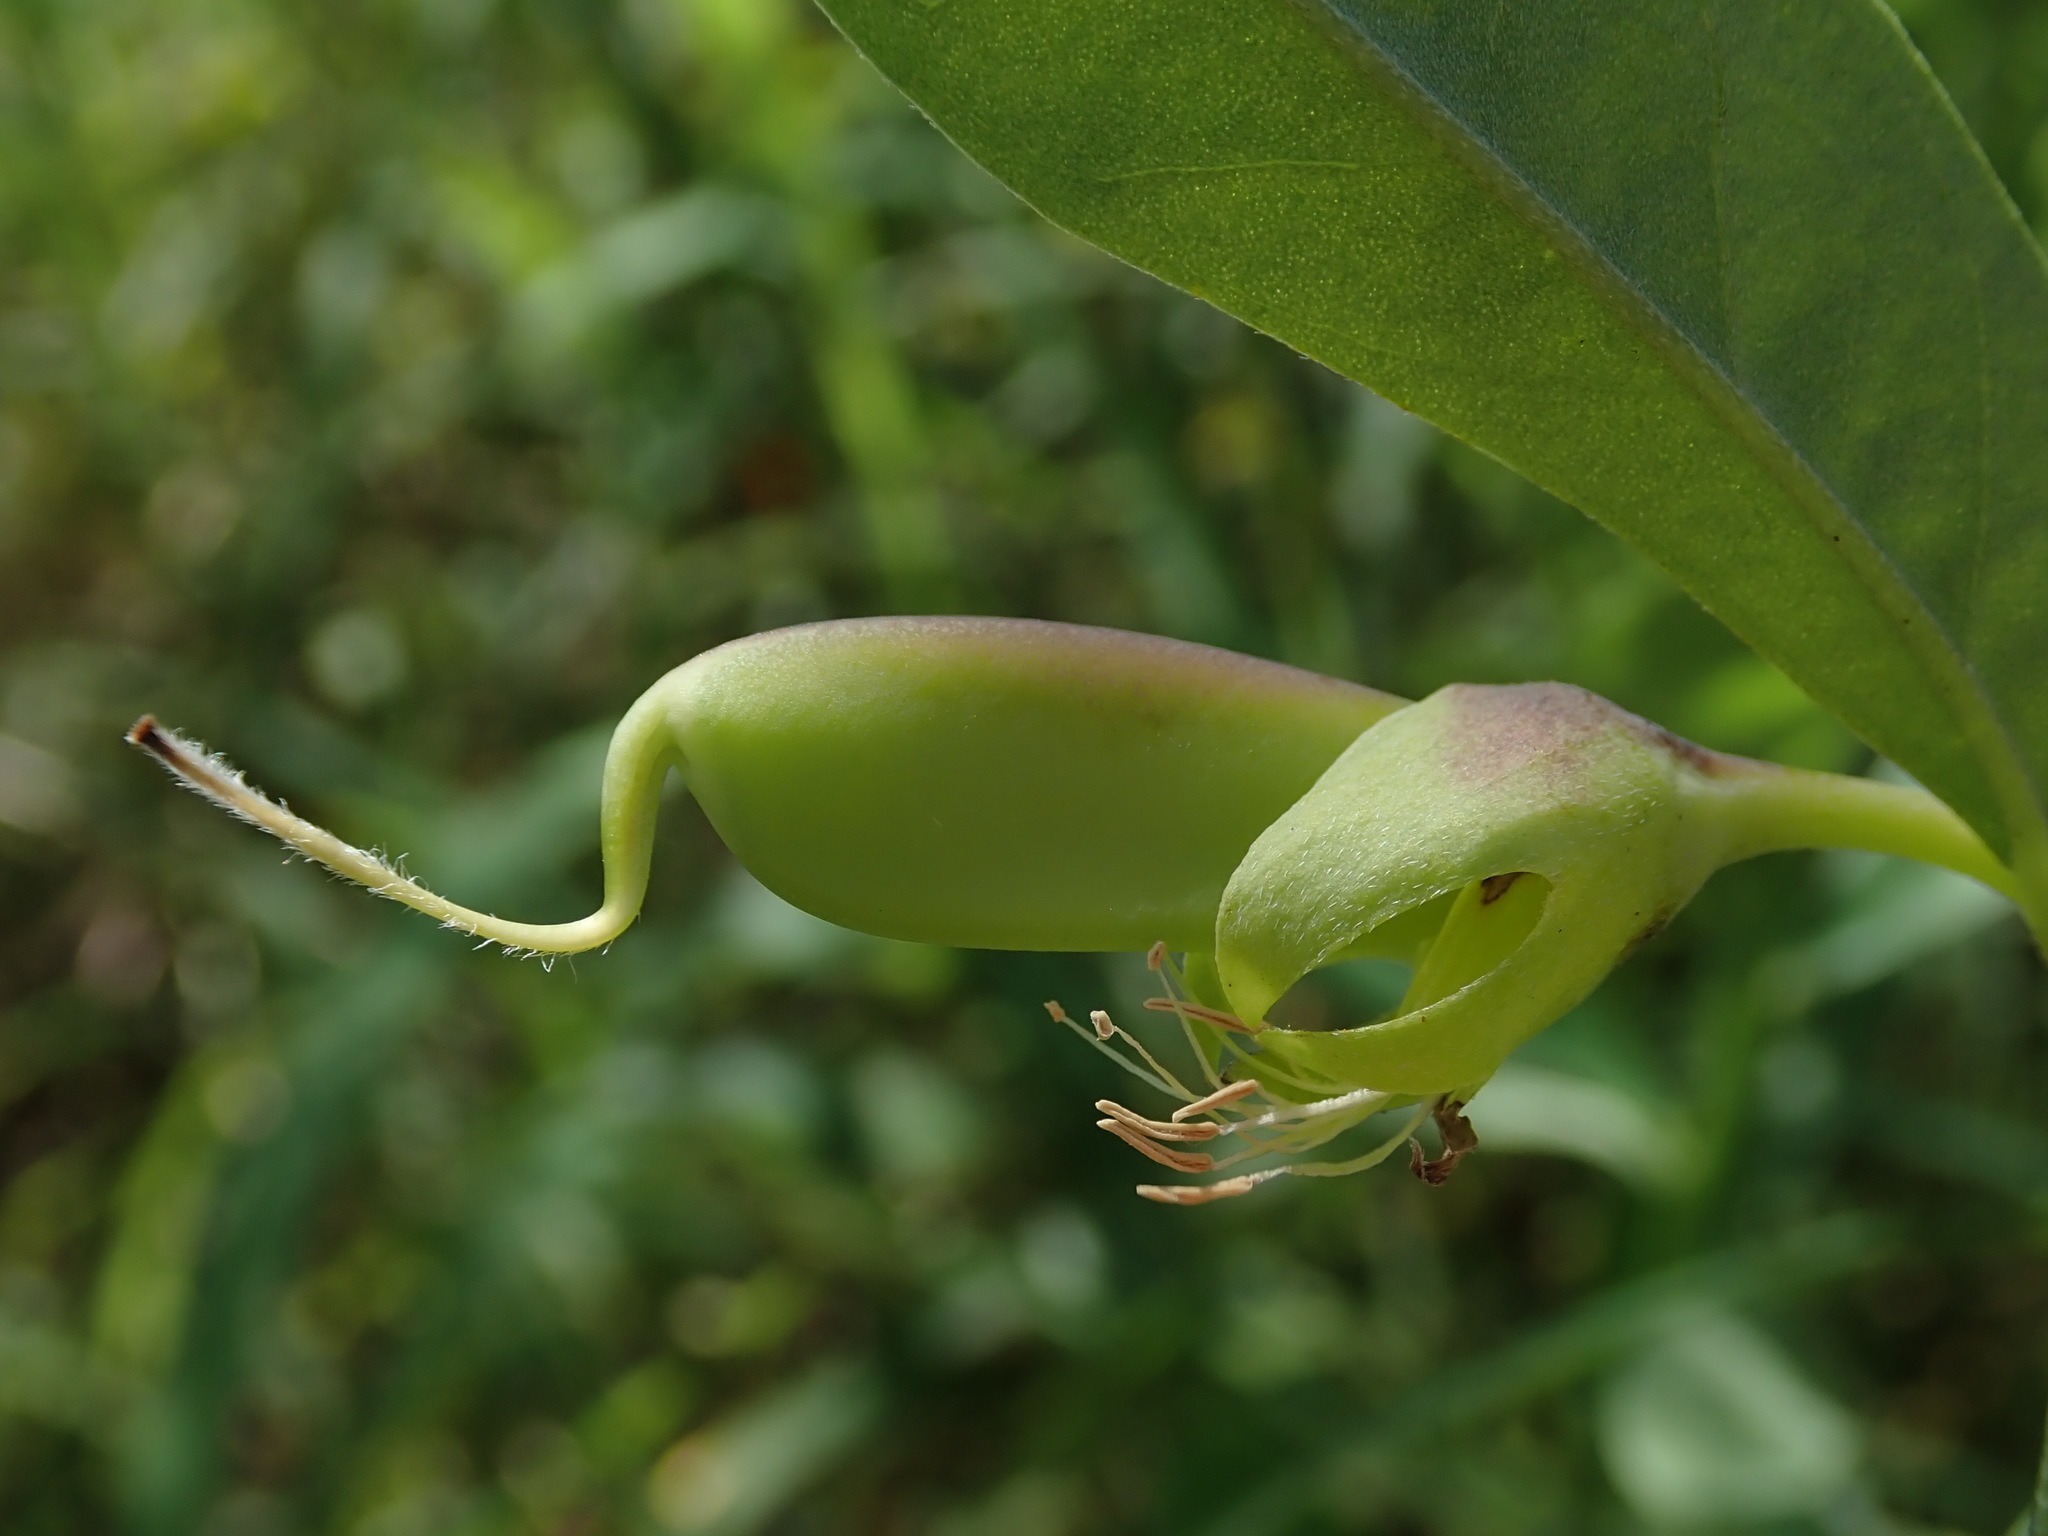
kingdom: Plantae
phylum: Tracheophyta
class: Magnoliopsida
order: Fabales
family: Fabaceae
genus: Crotalaria
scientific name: Crotalaria retusa
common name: Rattleweed
